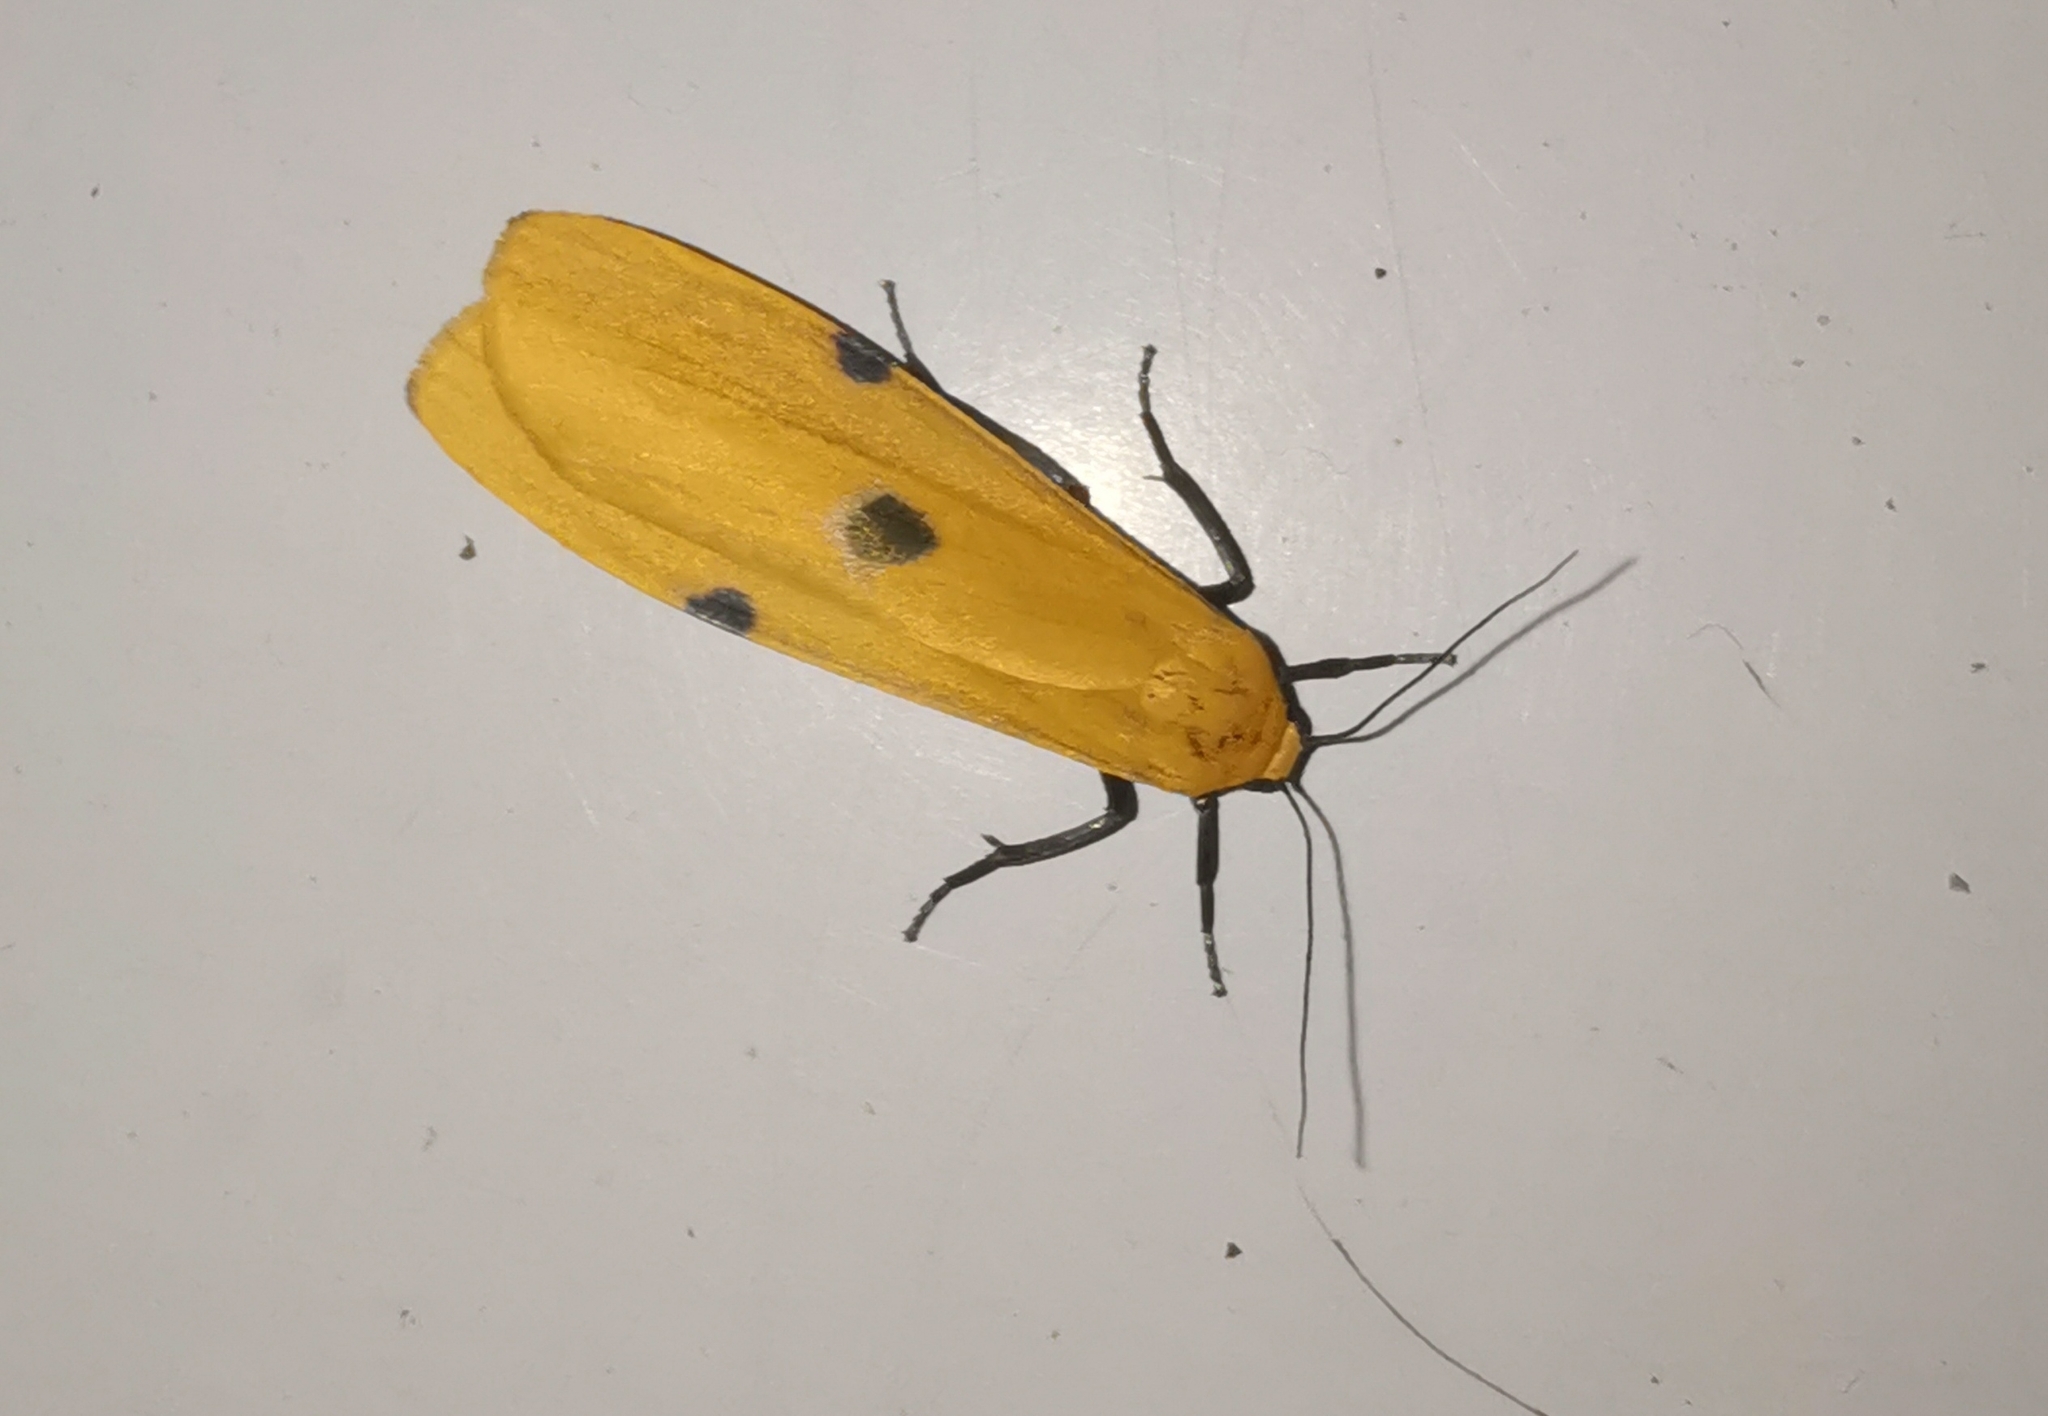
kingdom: Animalia
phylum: Arthropoda
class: Insecta
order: Lepidoptera
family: Erebidae
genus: Lithosia
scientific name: Lithosia quadra
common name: Four-spotted footman
